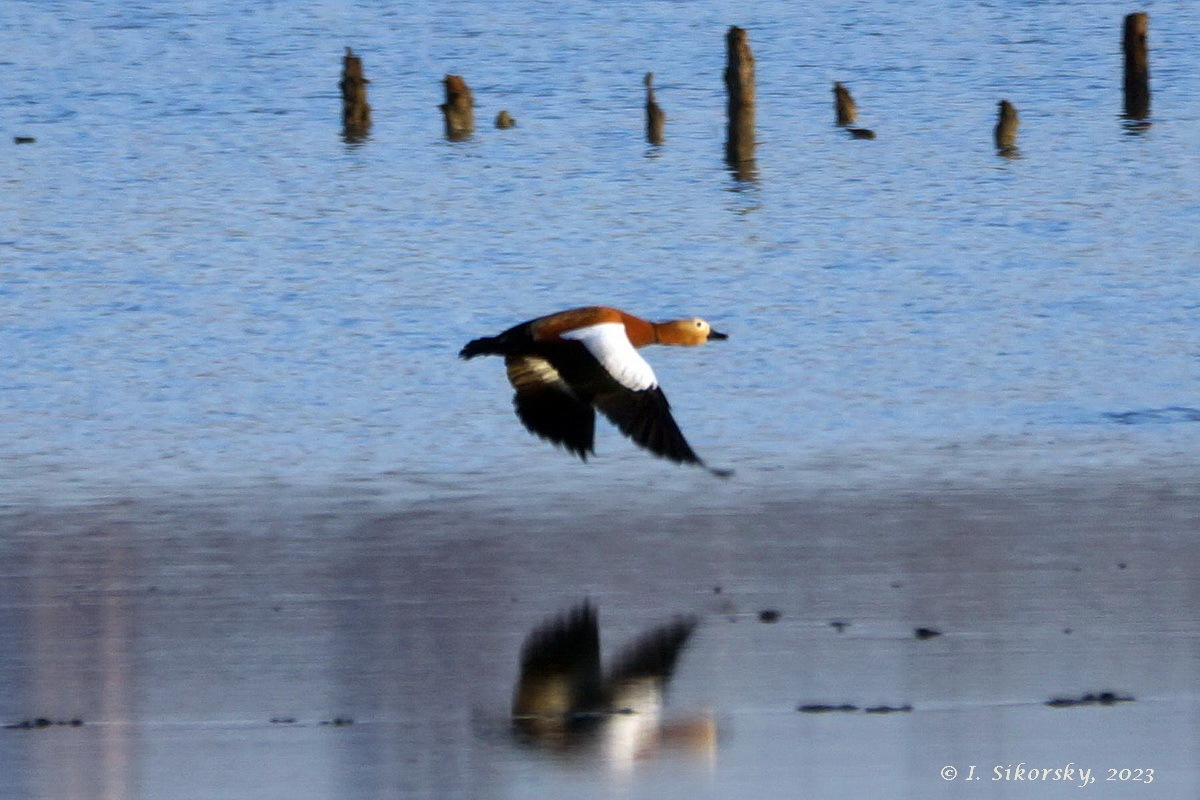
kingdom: Animalia
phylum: Chordata
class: Aves
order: Anseriformes
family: Anatidae
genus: Tadorna
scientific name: Tadorna ferruginea
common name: Ruddy shelduck
